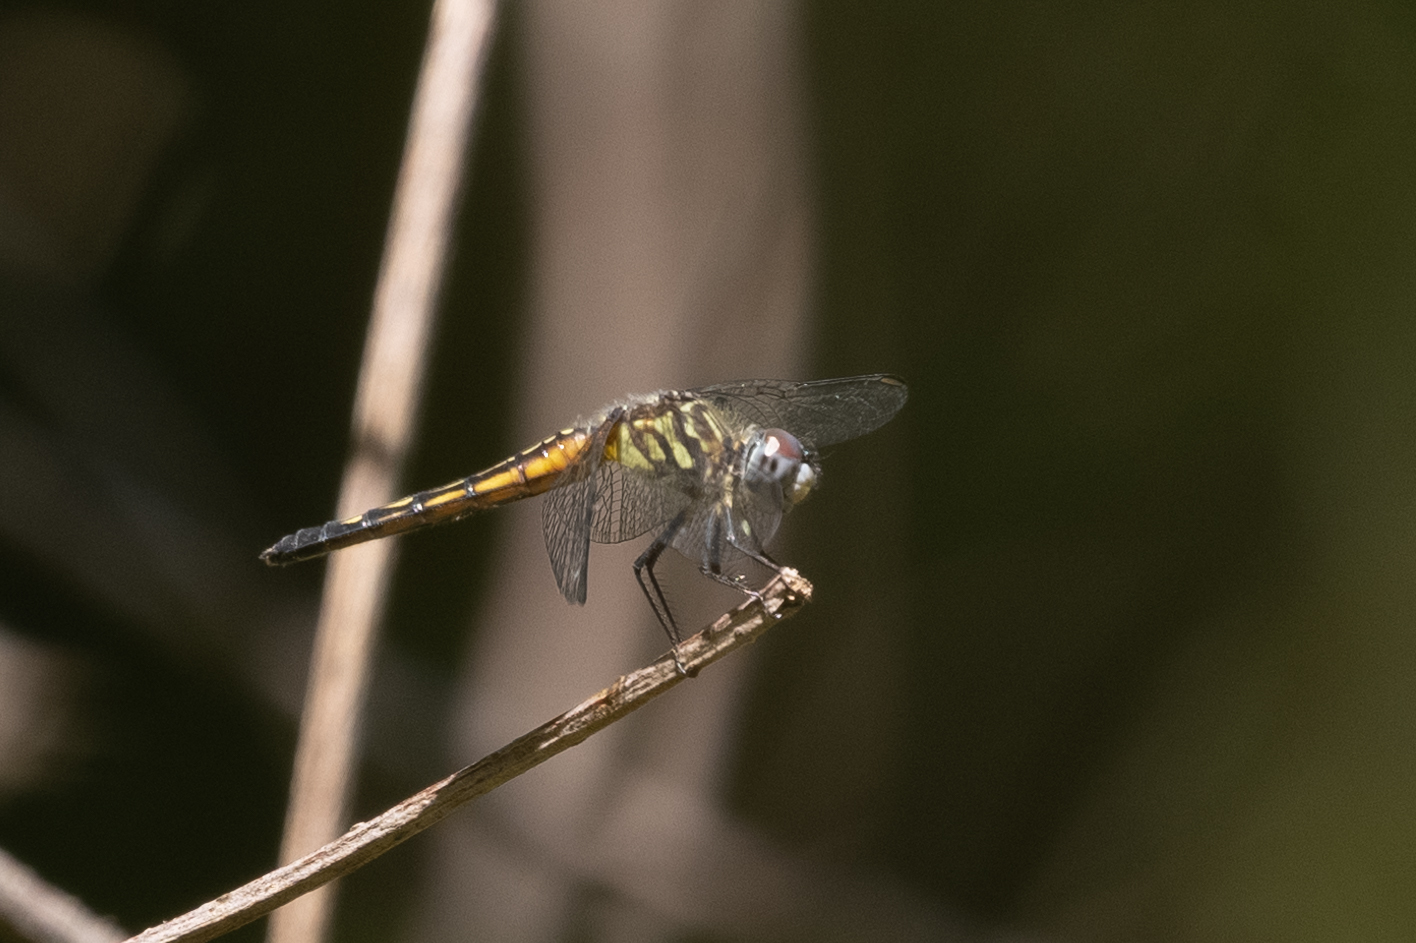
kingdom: Animalia
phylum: Arthropoda
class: Insecta
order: Odonata
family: Libellulidae
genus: Pachydiplax
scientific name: Pachydiplax longipennis
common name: Blue dasher
